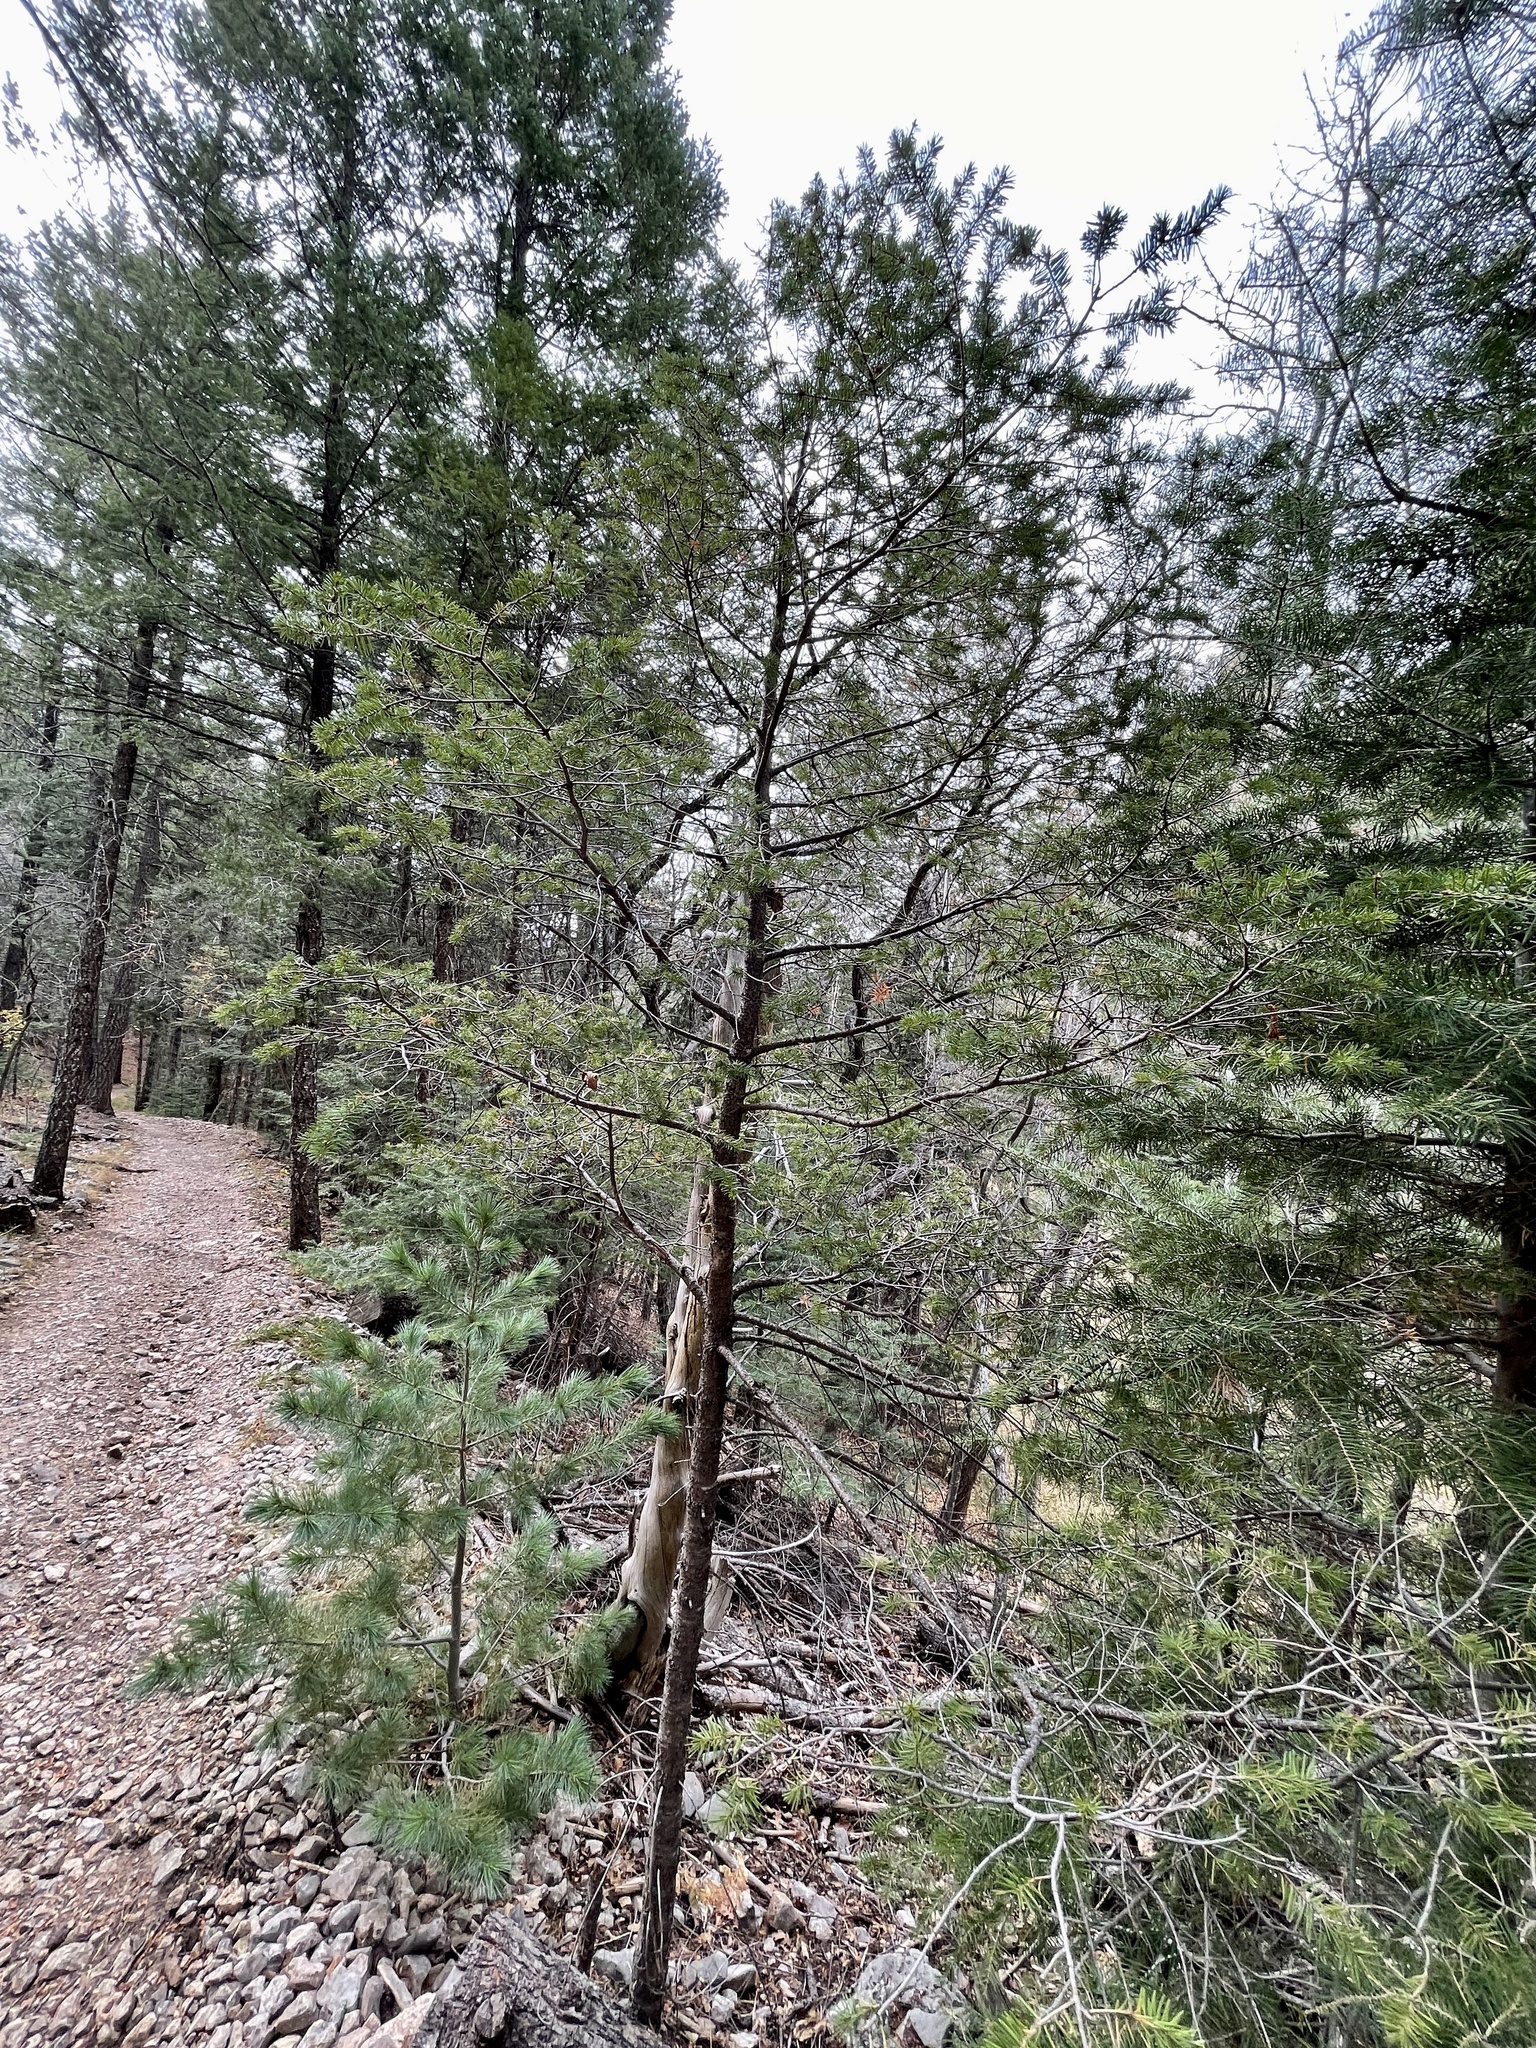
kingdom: Plantae
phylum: Tracheophyta
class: Pinopsida
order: Pinales
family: Pinaceae
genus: Pseudotsuga
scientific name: Pseudotsuga menziesii
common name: Douglas fir
